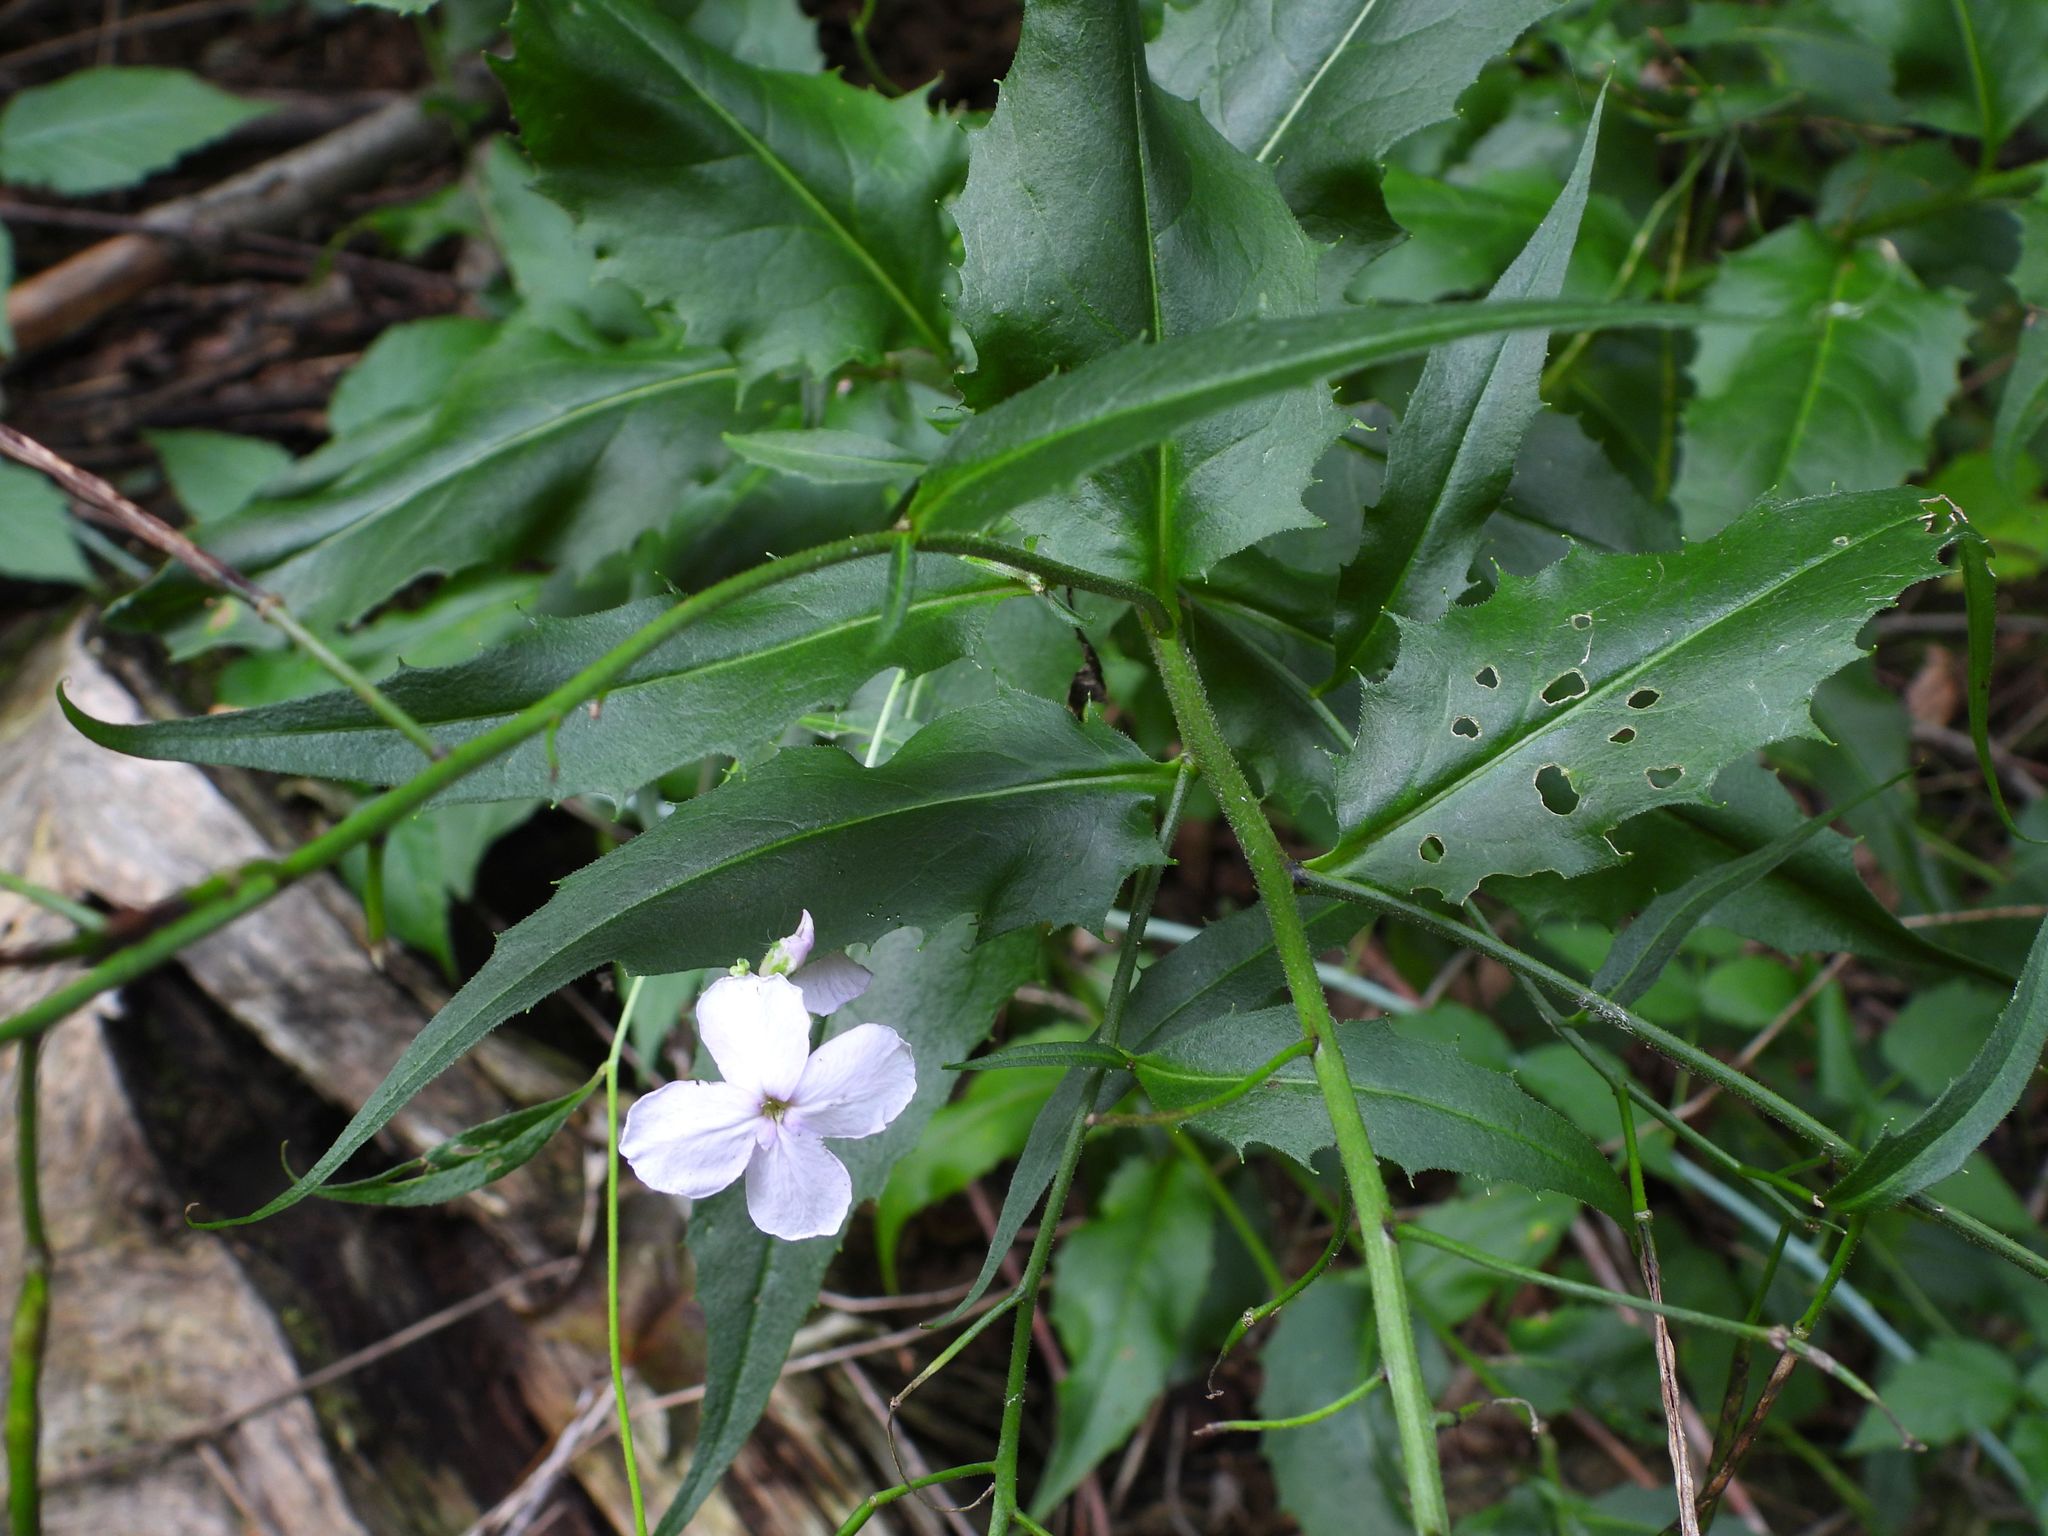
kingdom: Plantae
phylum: Tracheophyta
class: Magnoliopsida
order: Brassicales
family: Brassicaceae
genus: Hesperis
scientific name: Hesperis matronalis
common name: Dame's-violet
